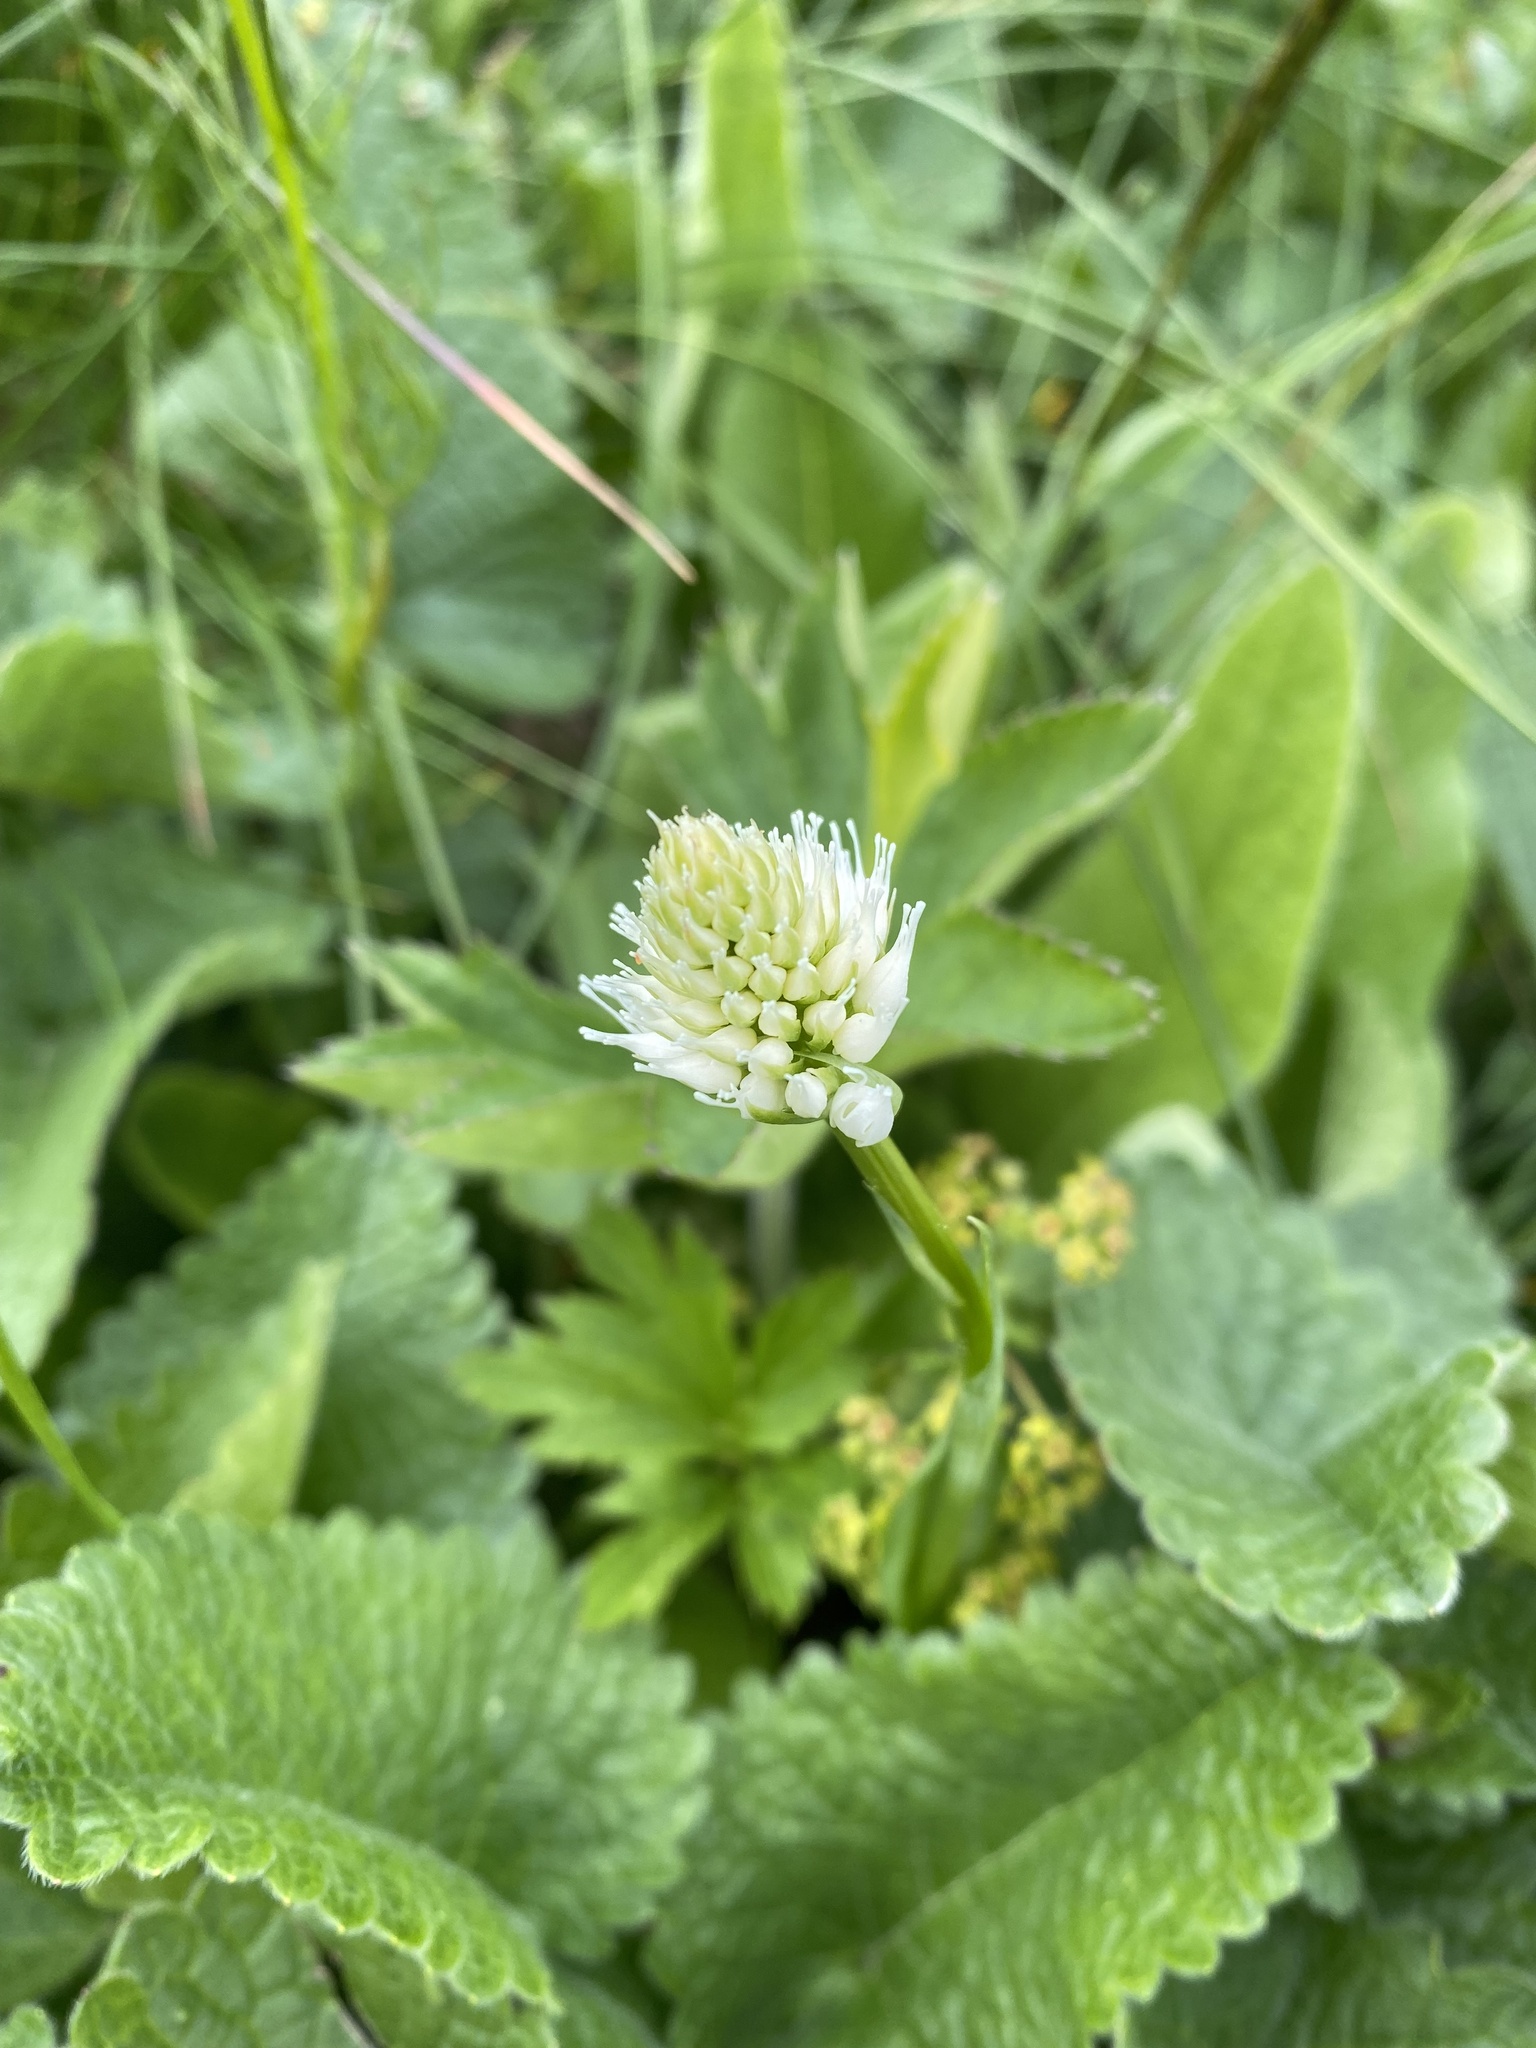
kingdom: Plantae
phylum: Tracheophyta
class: Liliopsida
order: Asparagales
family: Orchidaceae
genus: Traunsteinera
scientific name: Traunsteinera sphaerica
